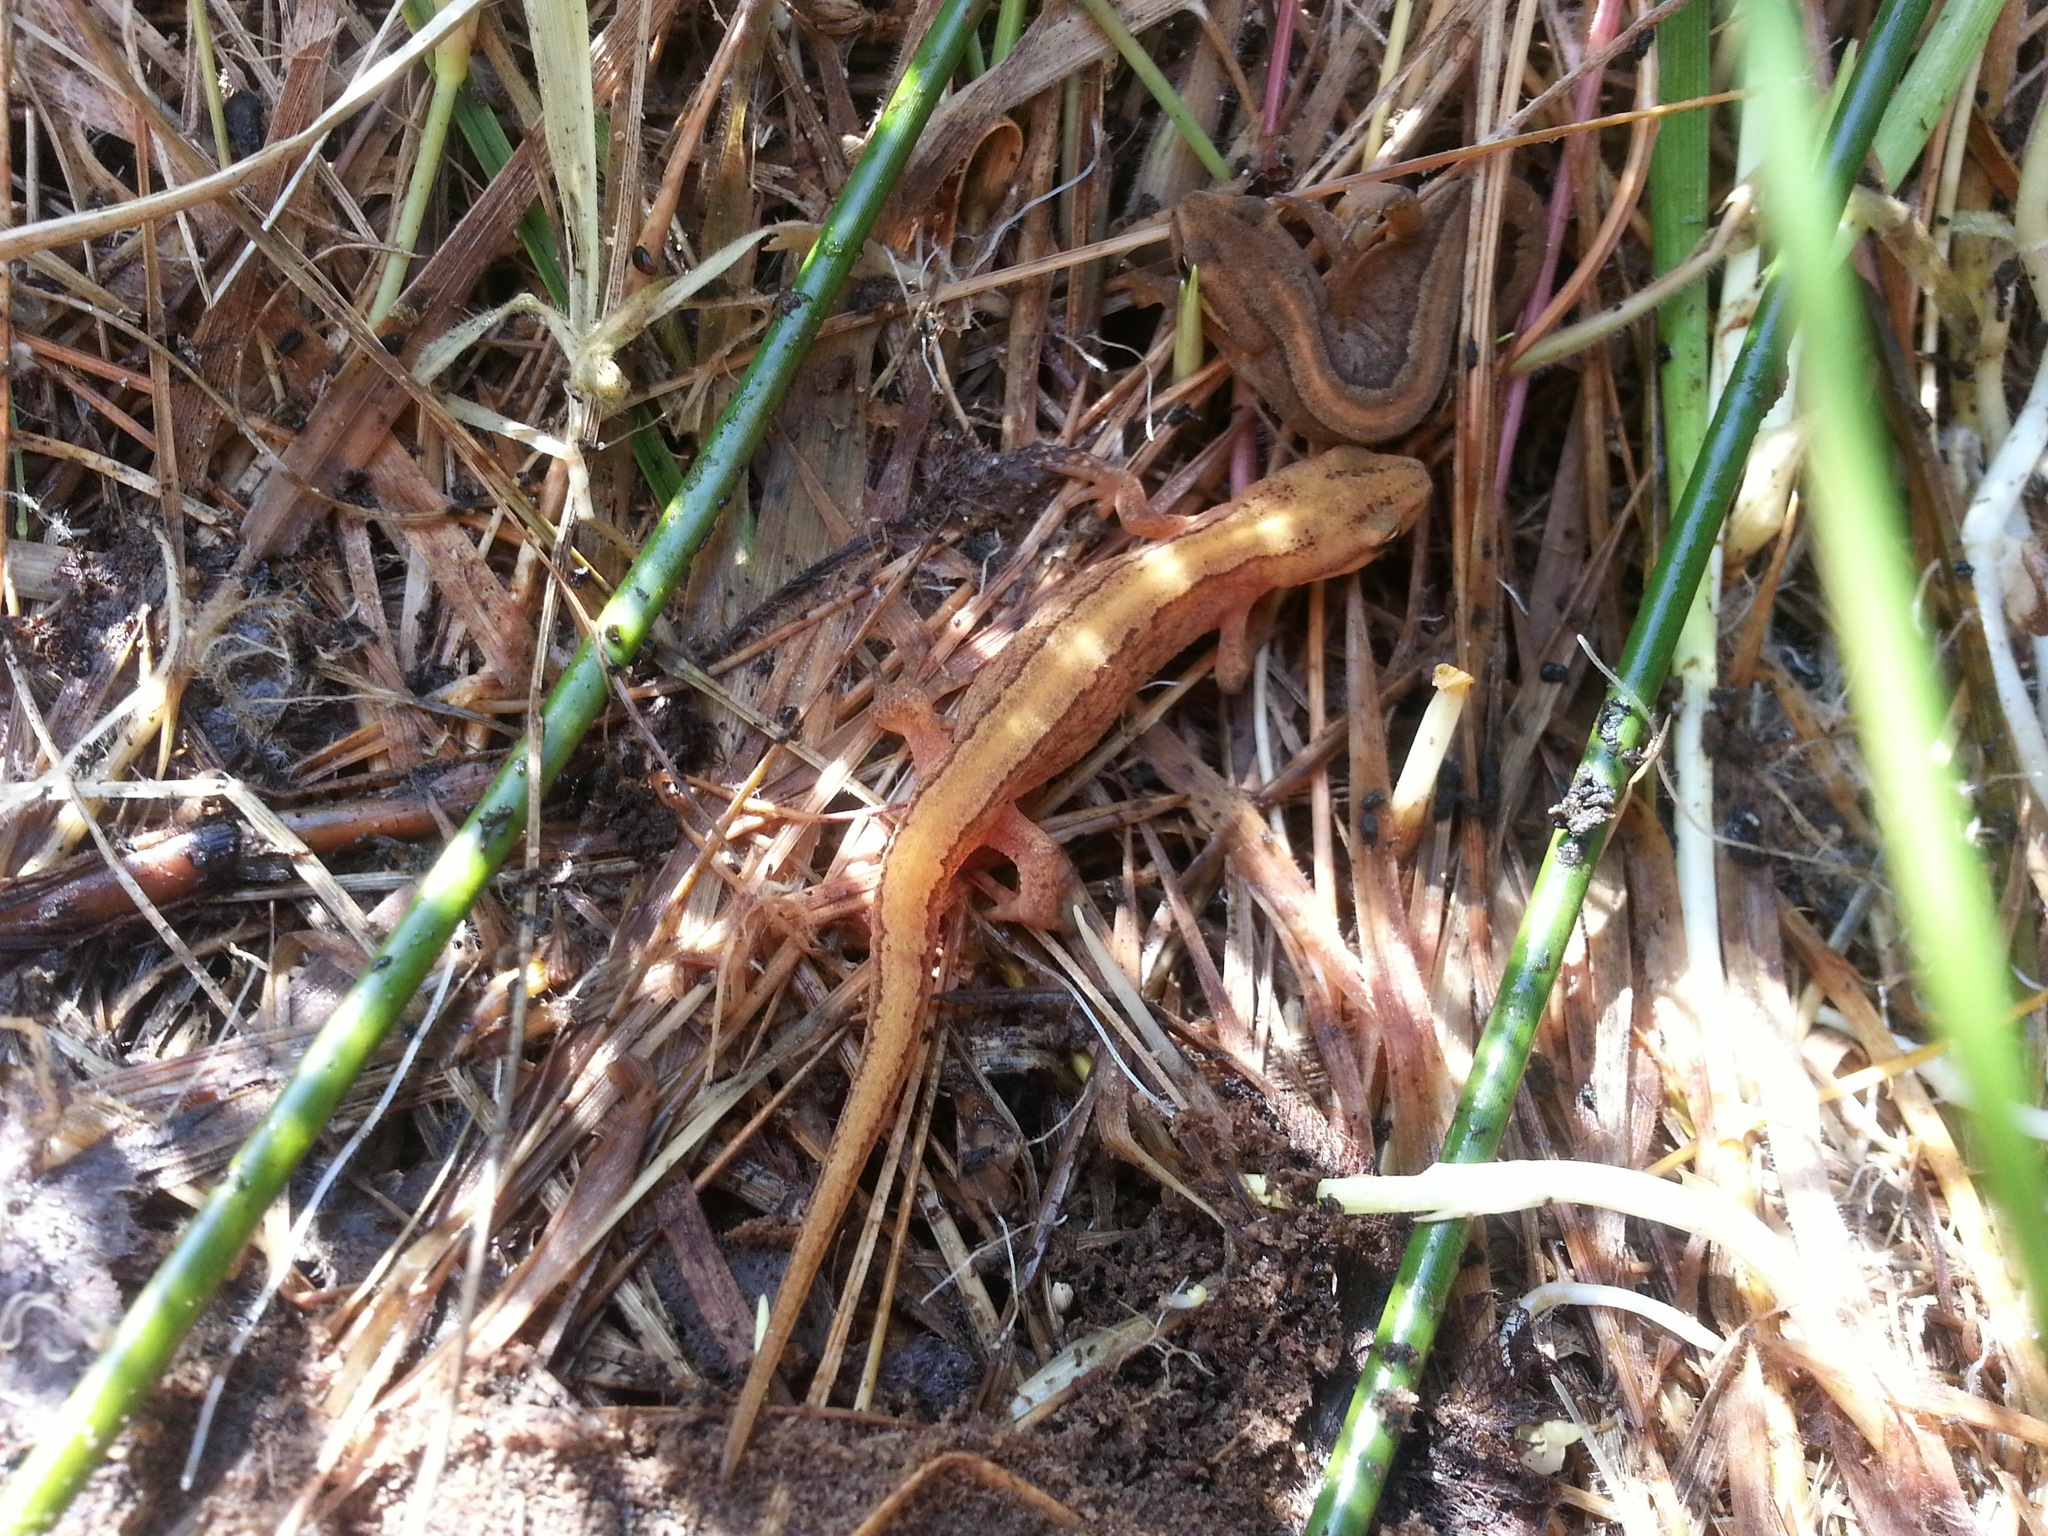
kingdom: Animalia
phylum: Chordata
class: Amphibia
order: Caudata
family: Salamandridae
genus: Lissotriton
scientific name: Lissotriton
